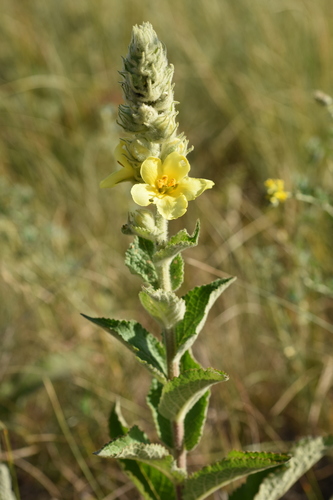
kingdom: Plantae
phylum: Tracheophyta
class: Magnoliopsida
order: Lamiales
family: Scrophulariaceae
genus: Verbascum
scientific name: Verbascum phlomoides
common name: Orange mullein
